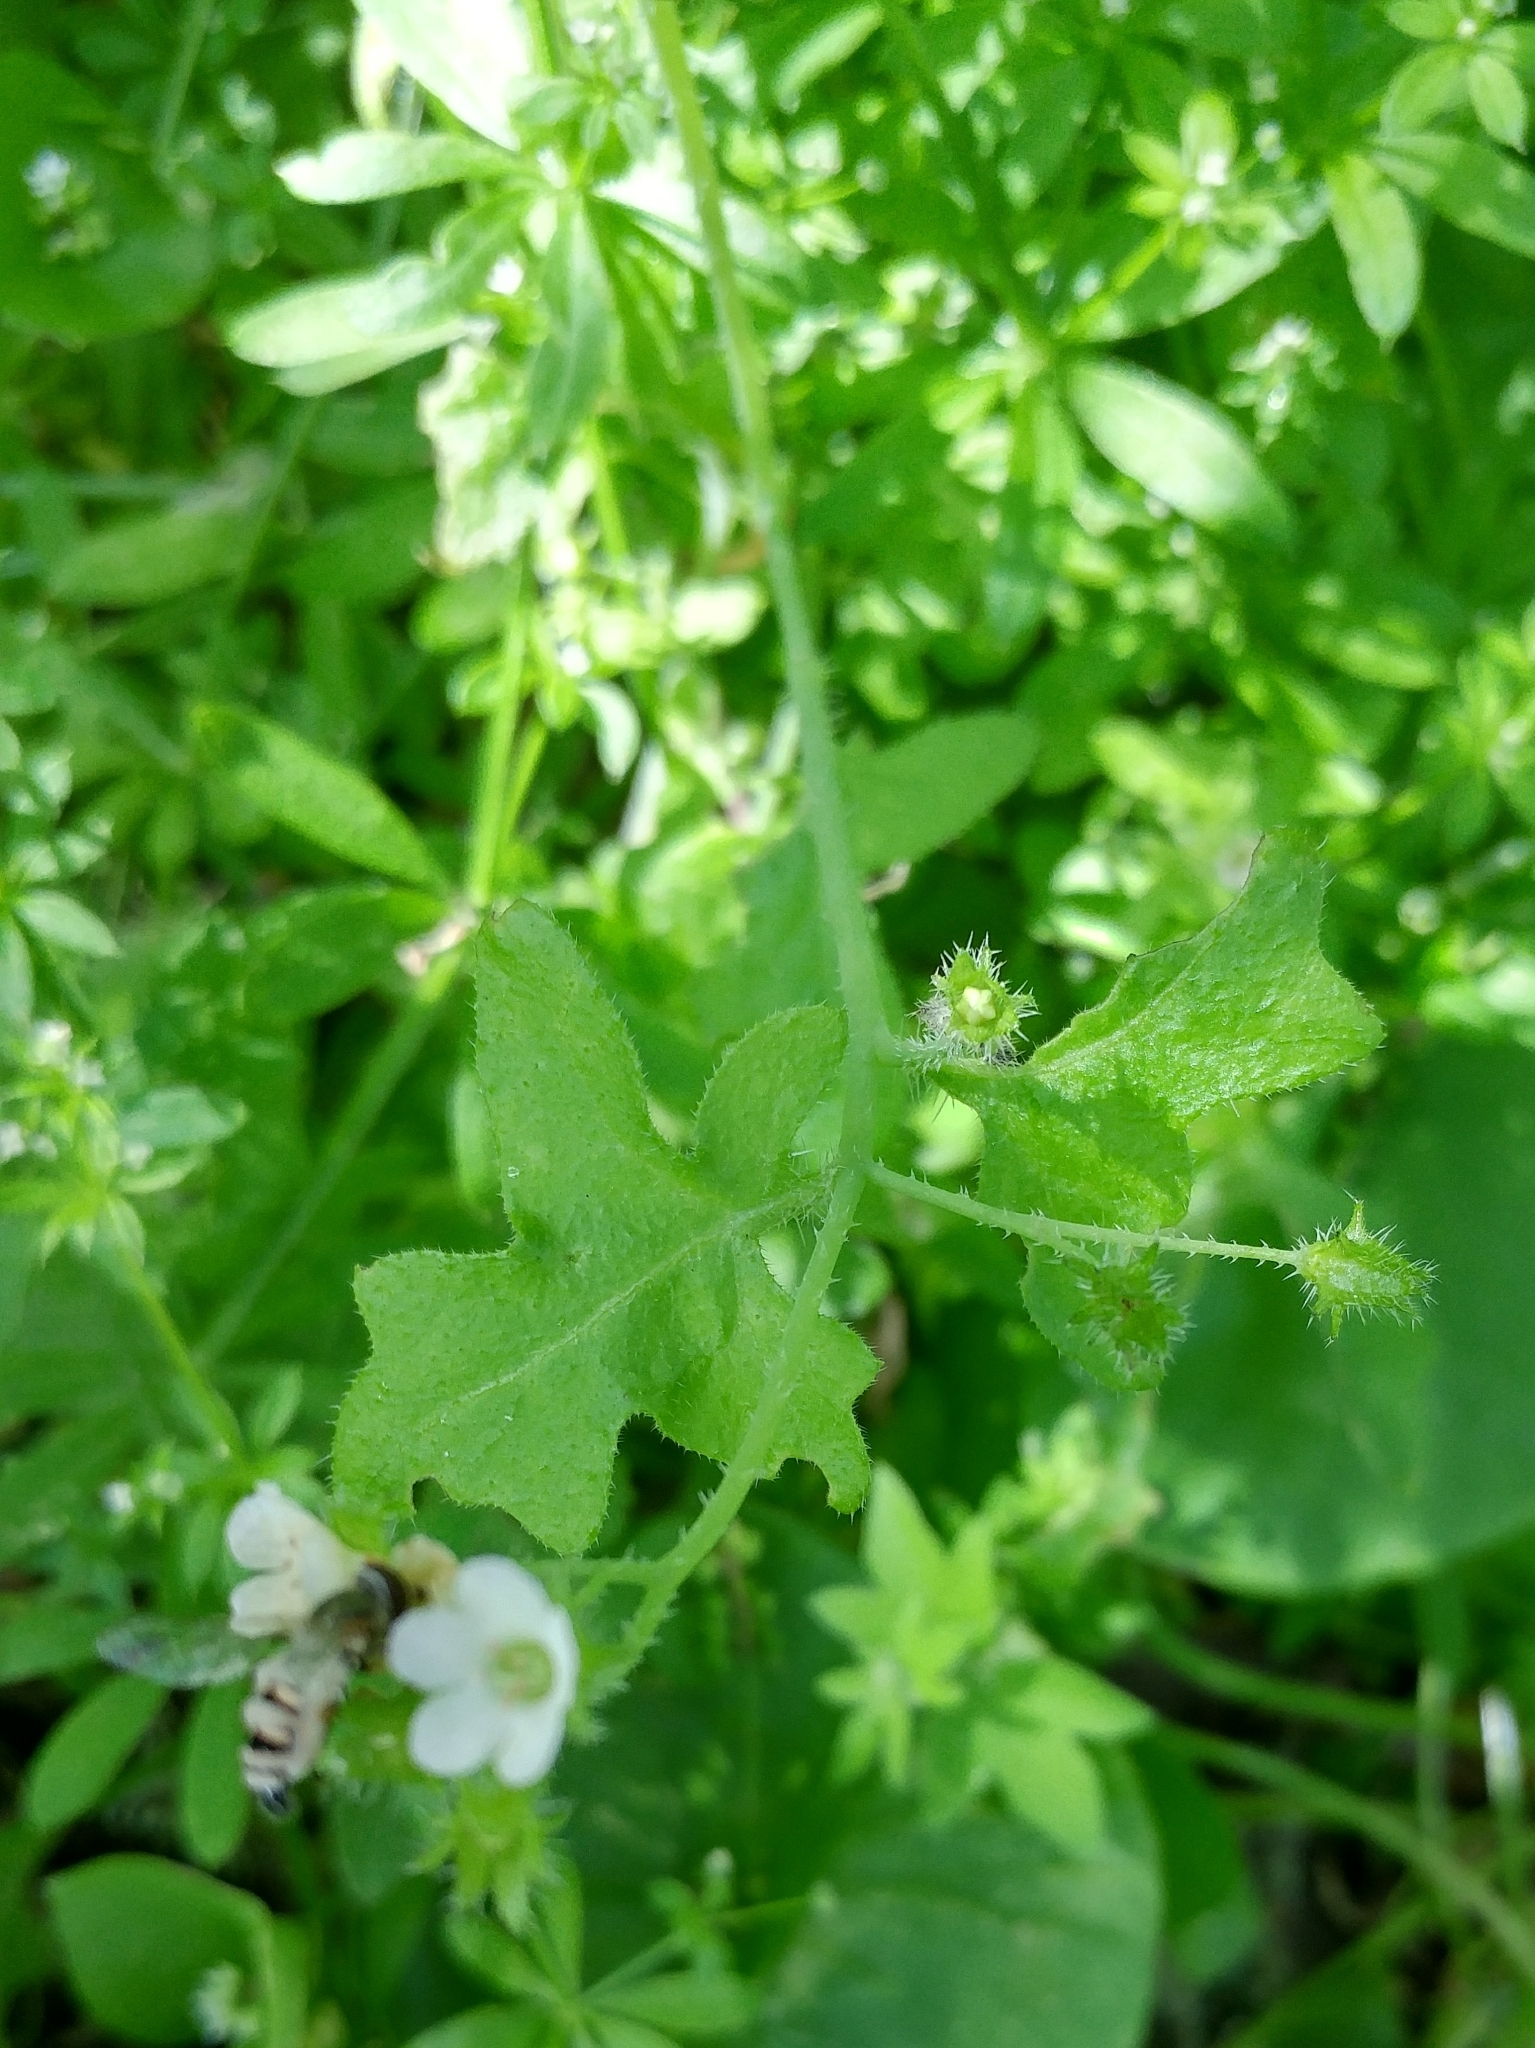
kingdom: Plantae
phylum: Tracheophyta
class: Magnoliopsida
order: Boraginales
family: Hydrophyllaceae
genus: Pholistoma
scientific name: Pholistoma racemosum
